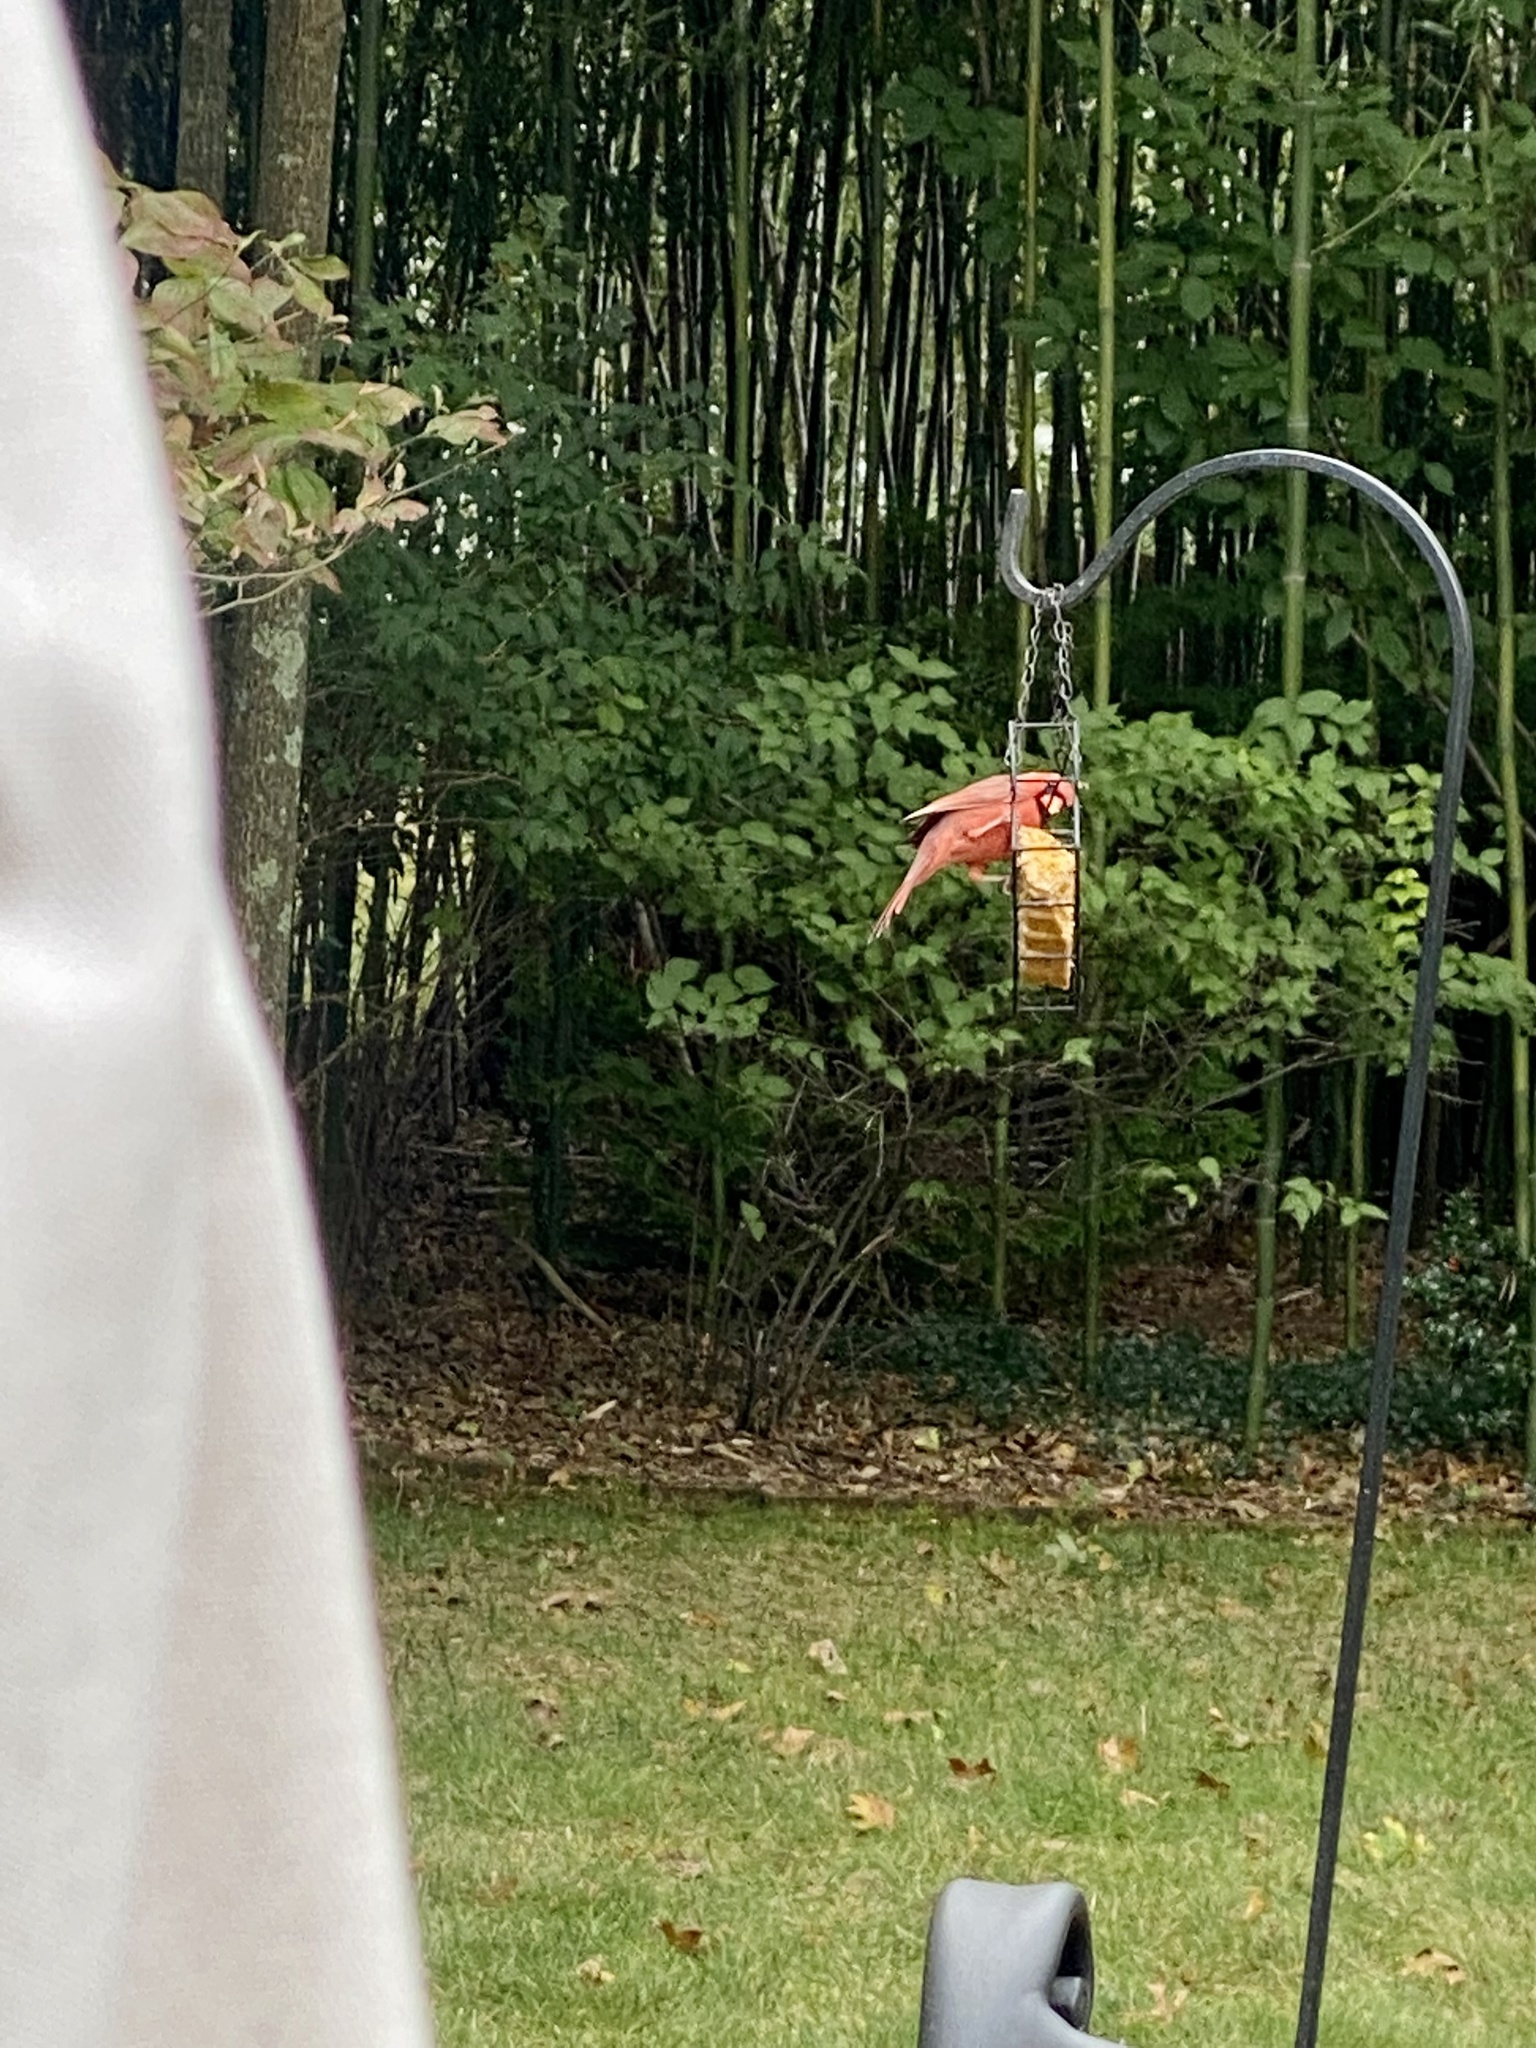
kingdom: Animalia
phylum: Chordata
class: Aves
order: Passeriformes
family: Cardinalidae
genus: Cardinalis
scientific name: Cardinalis cardinalis
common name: Northern cardinal
